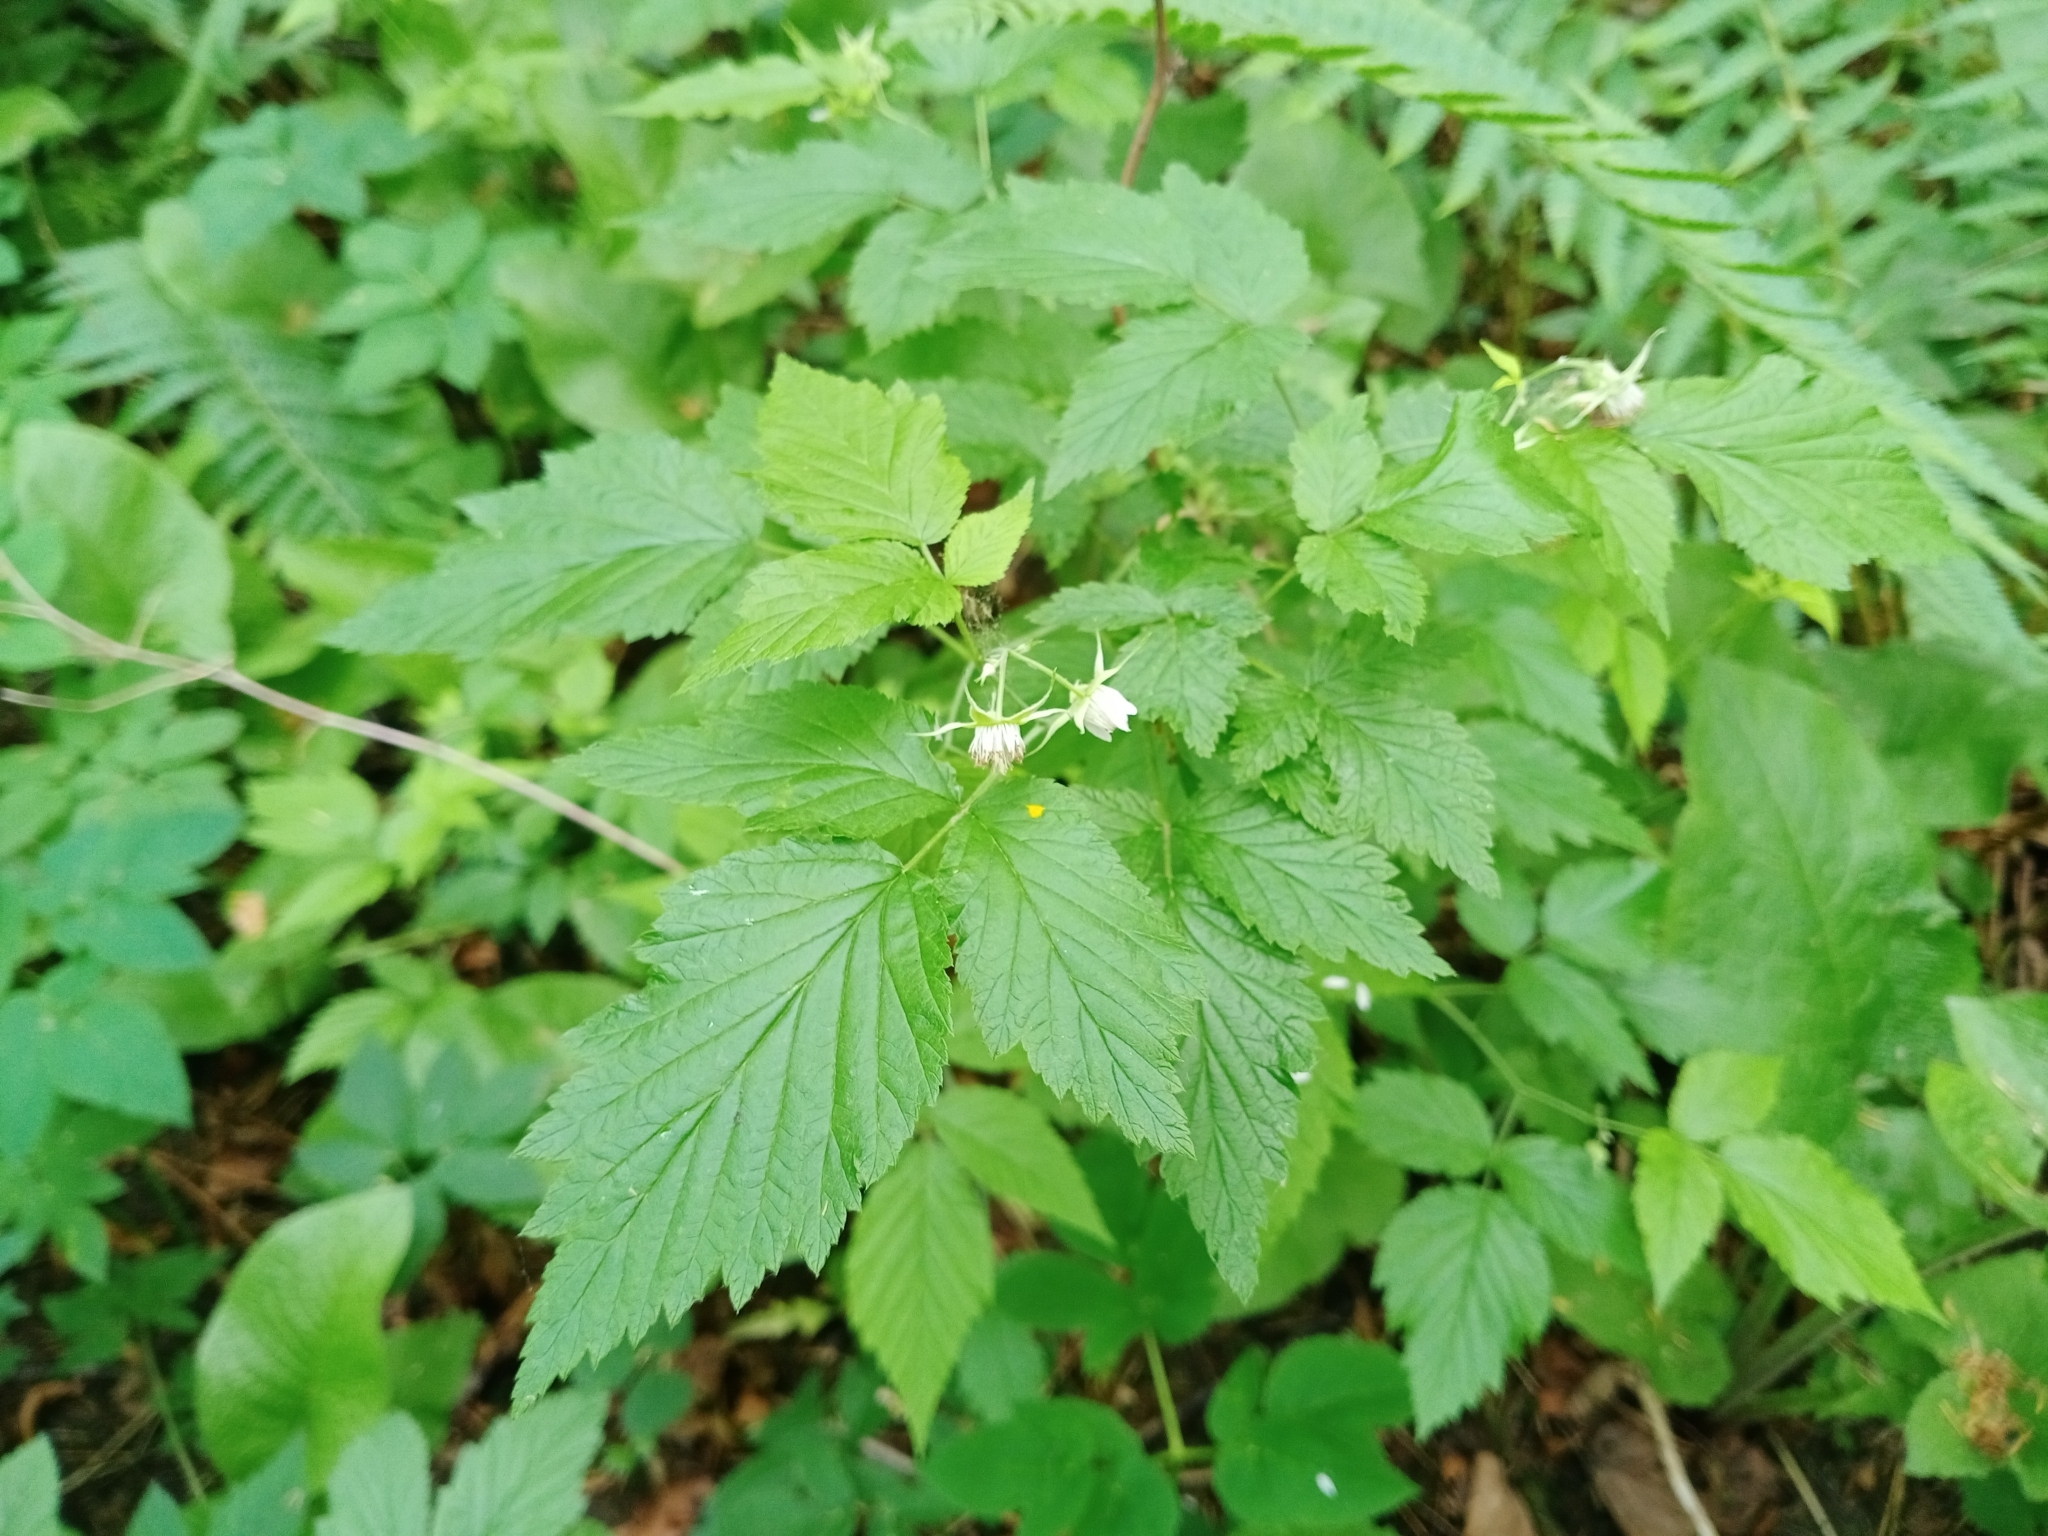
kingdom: Plantae
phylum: Tracheophyta
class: Magnoliopsida
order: Rosales
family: Rosaceae
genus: Rubus
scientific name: Rubus idaeus
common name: Raspberry
